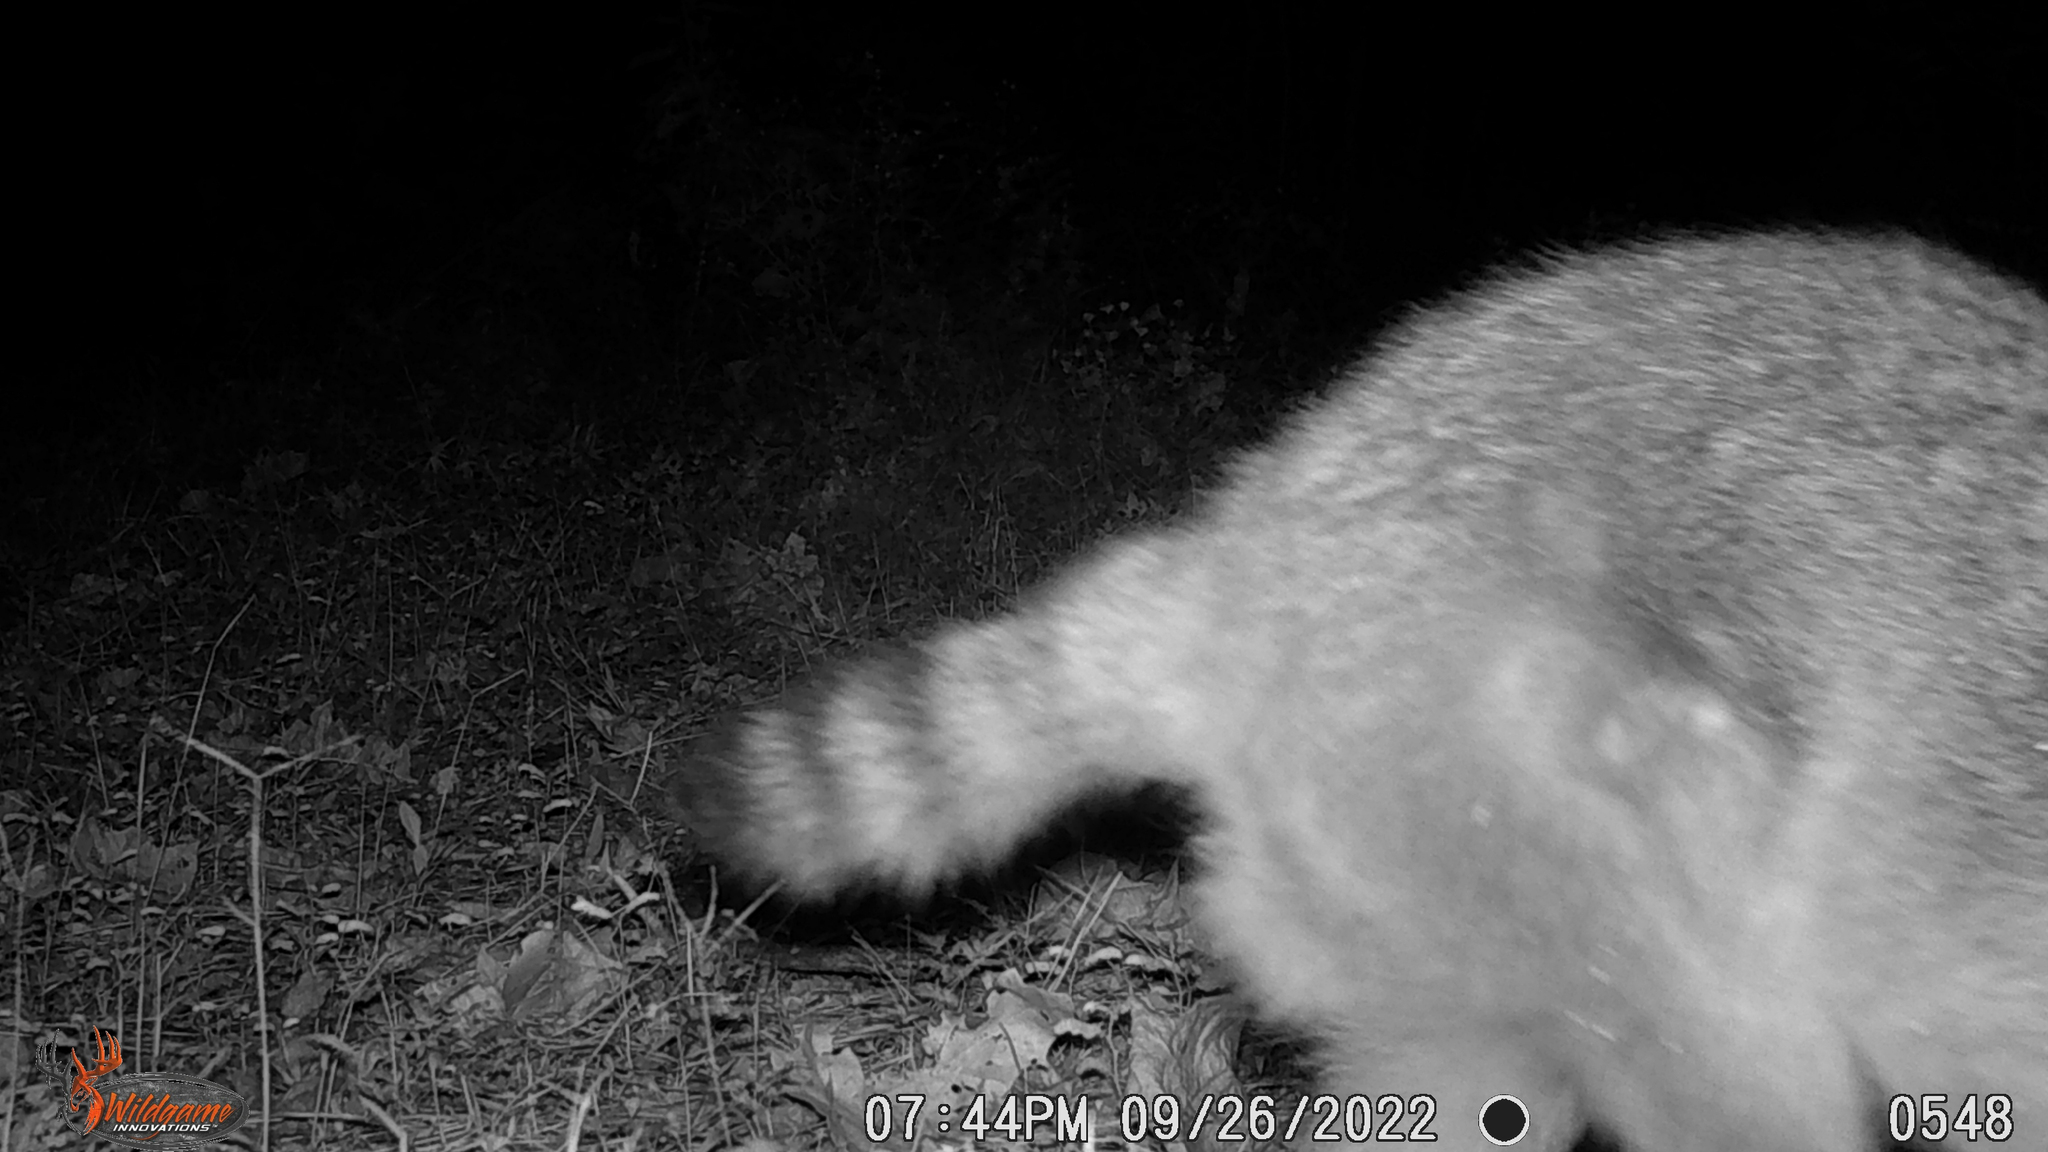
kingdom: Animalia
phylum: Chordata
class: Mammalia
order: Carnivora
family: Procyonidae
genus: Procyon
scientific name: Procyon lotor
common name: Raccoon
